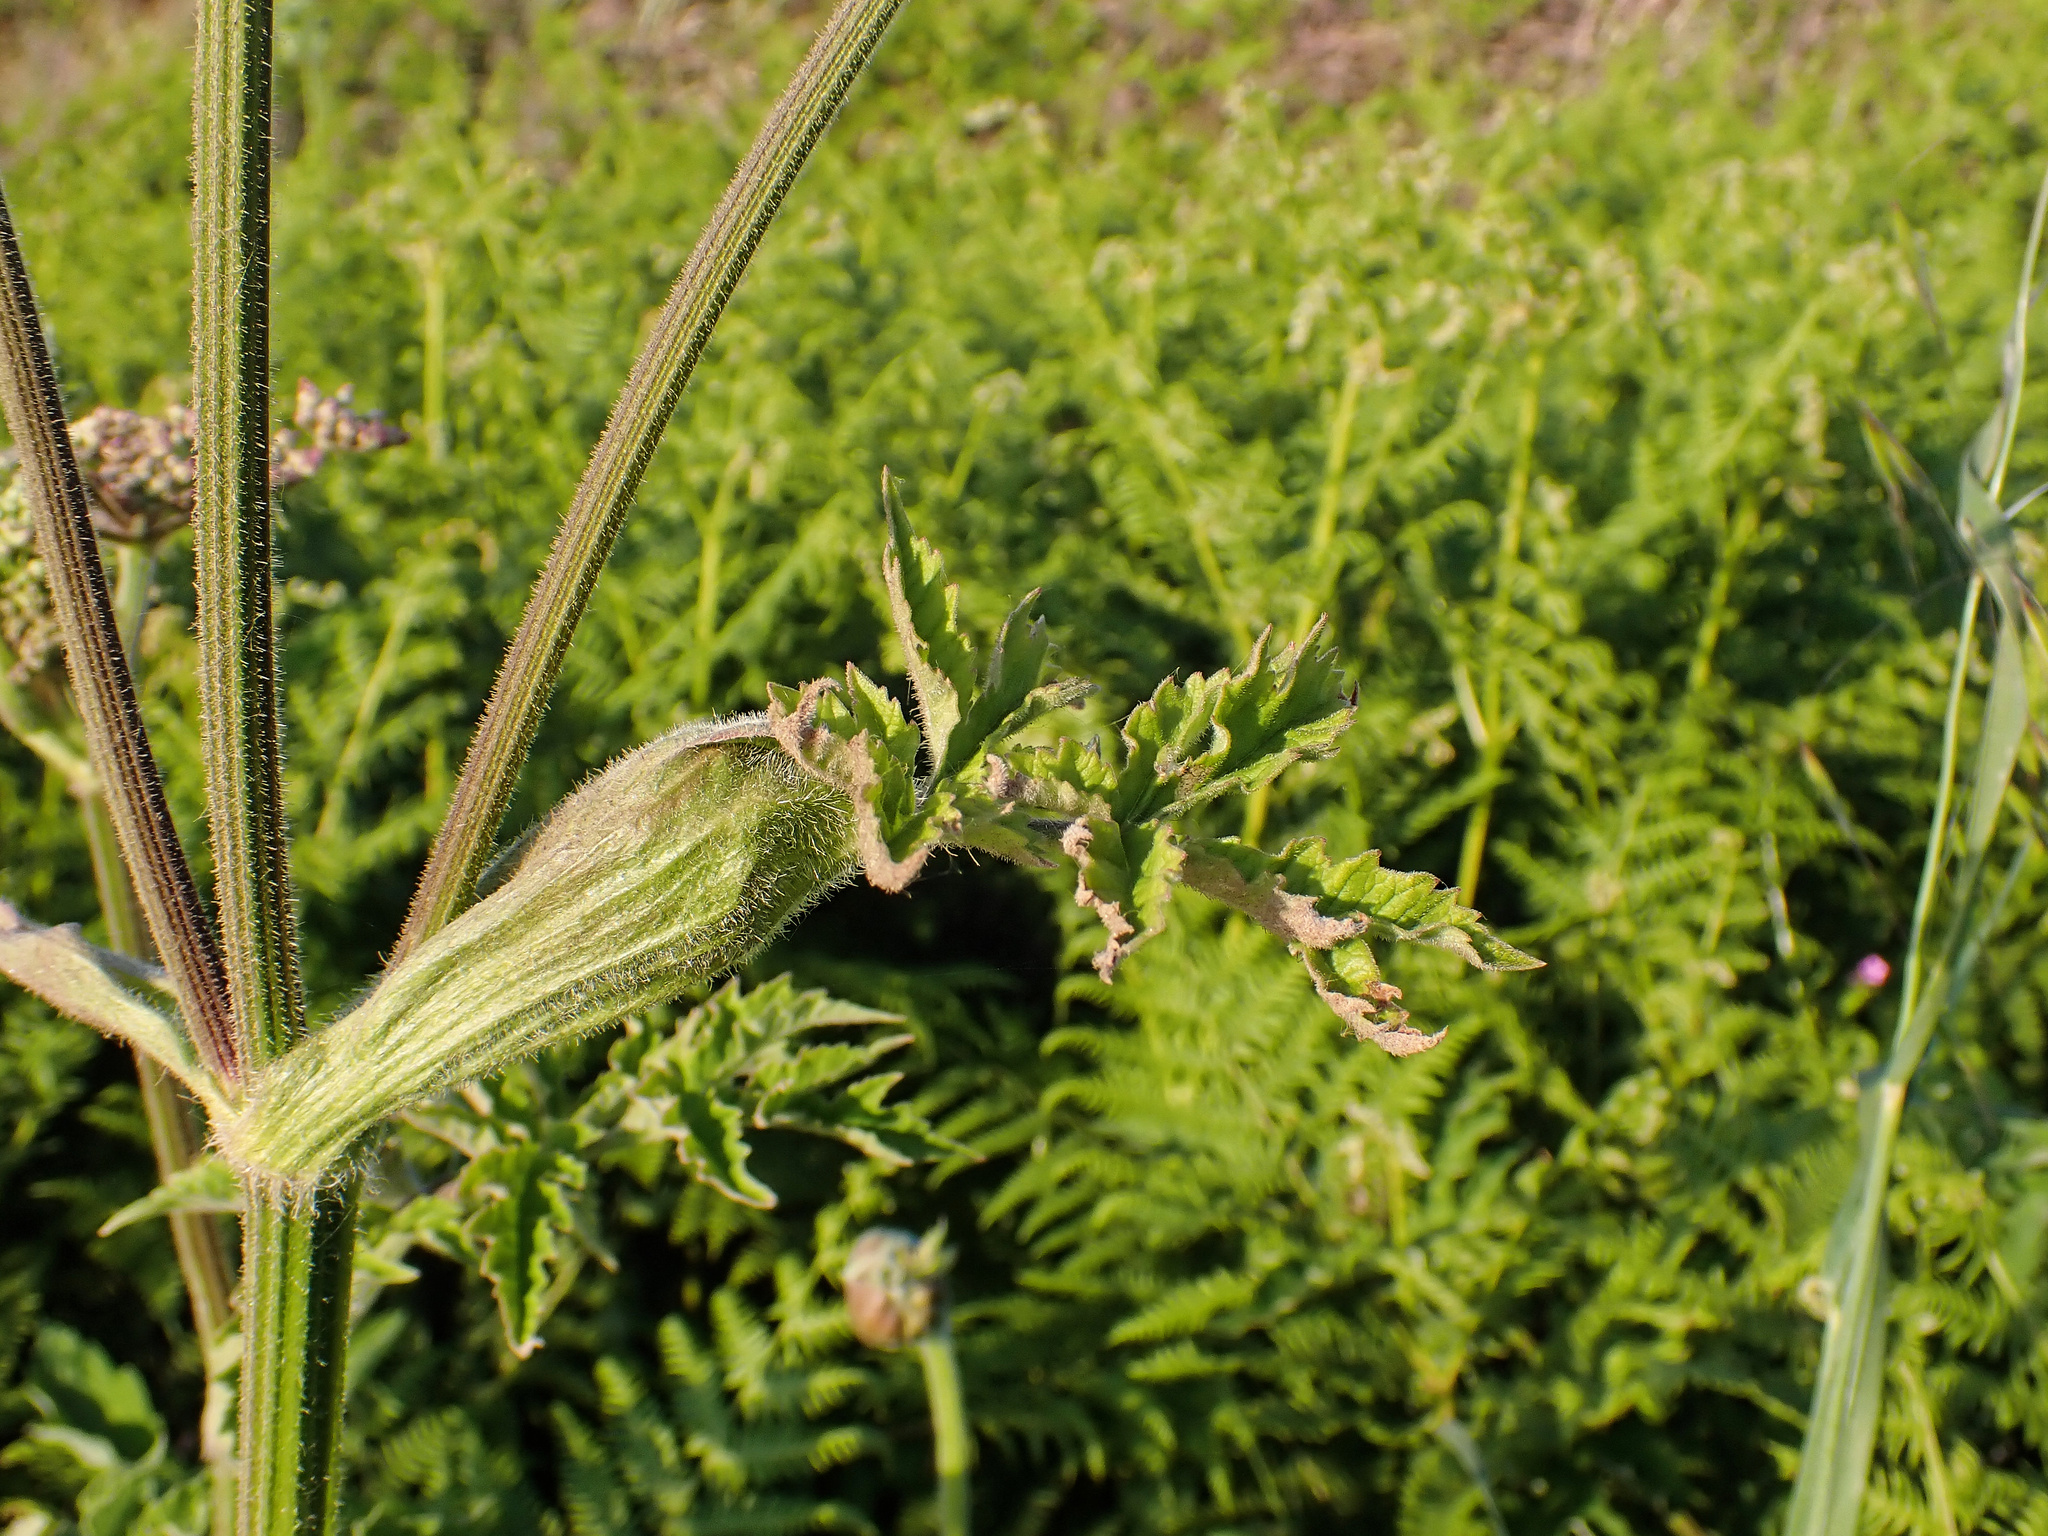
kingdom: Plantae
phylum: Tracheophyta
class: Magnoliopsida
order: Apiales
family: Apiaceae
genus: Heracleum
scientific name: Heracleum sphondylium
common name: Hogweed
